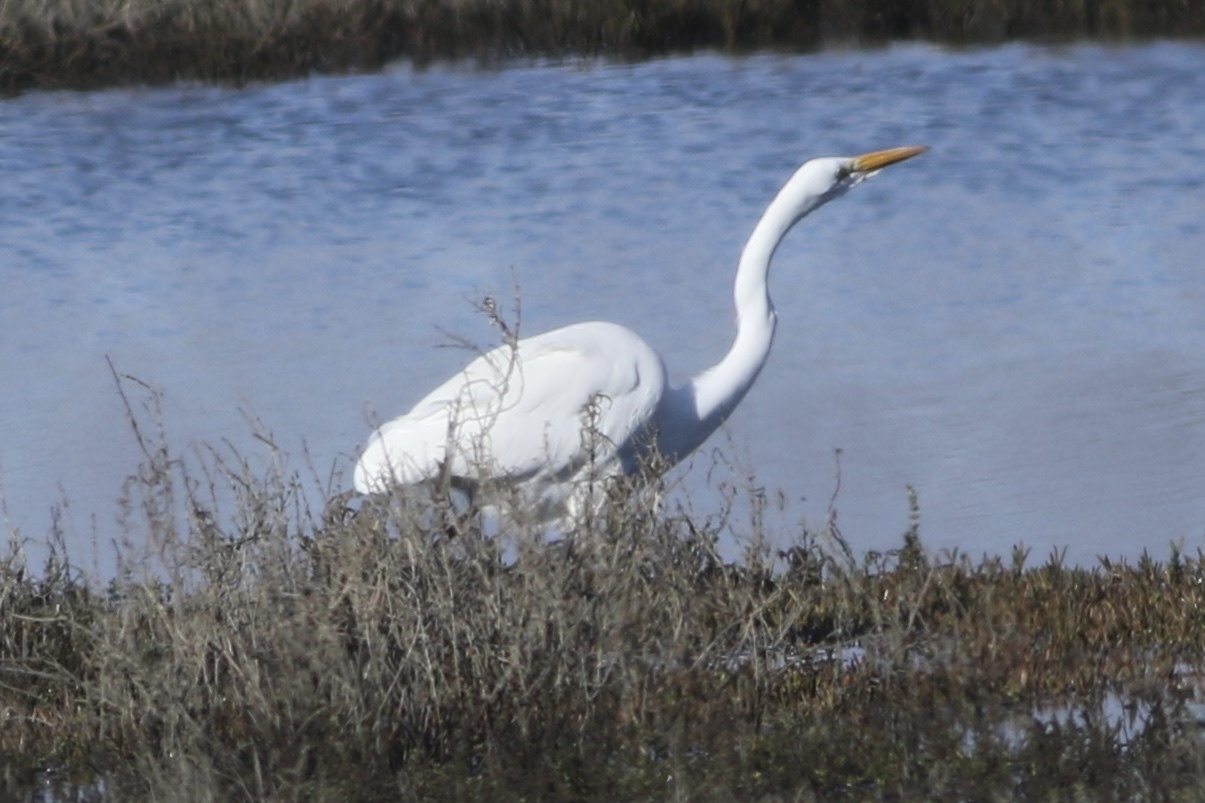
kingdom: Animalia
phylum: Chordata
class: Aves
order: Pelecaniformes
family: Ardeidae
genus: Ardea
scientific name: Ardea alba
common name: Great egret
